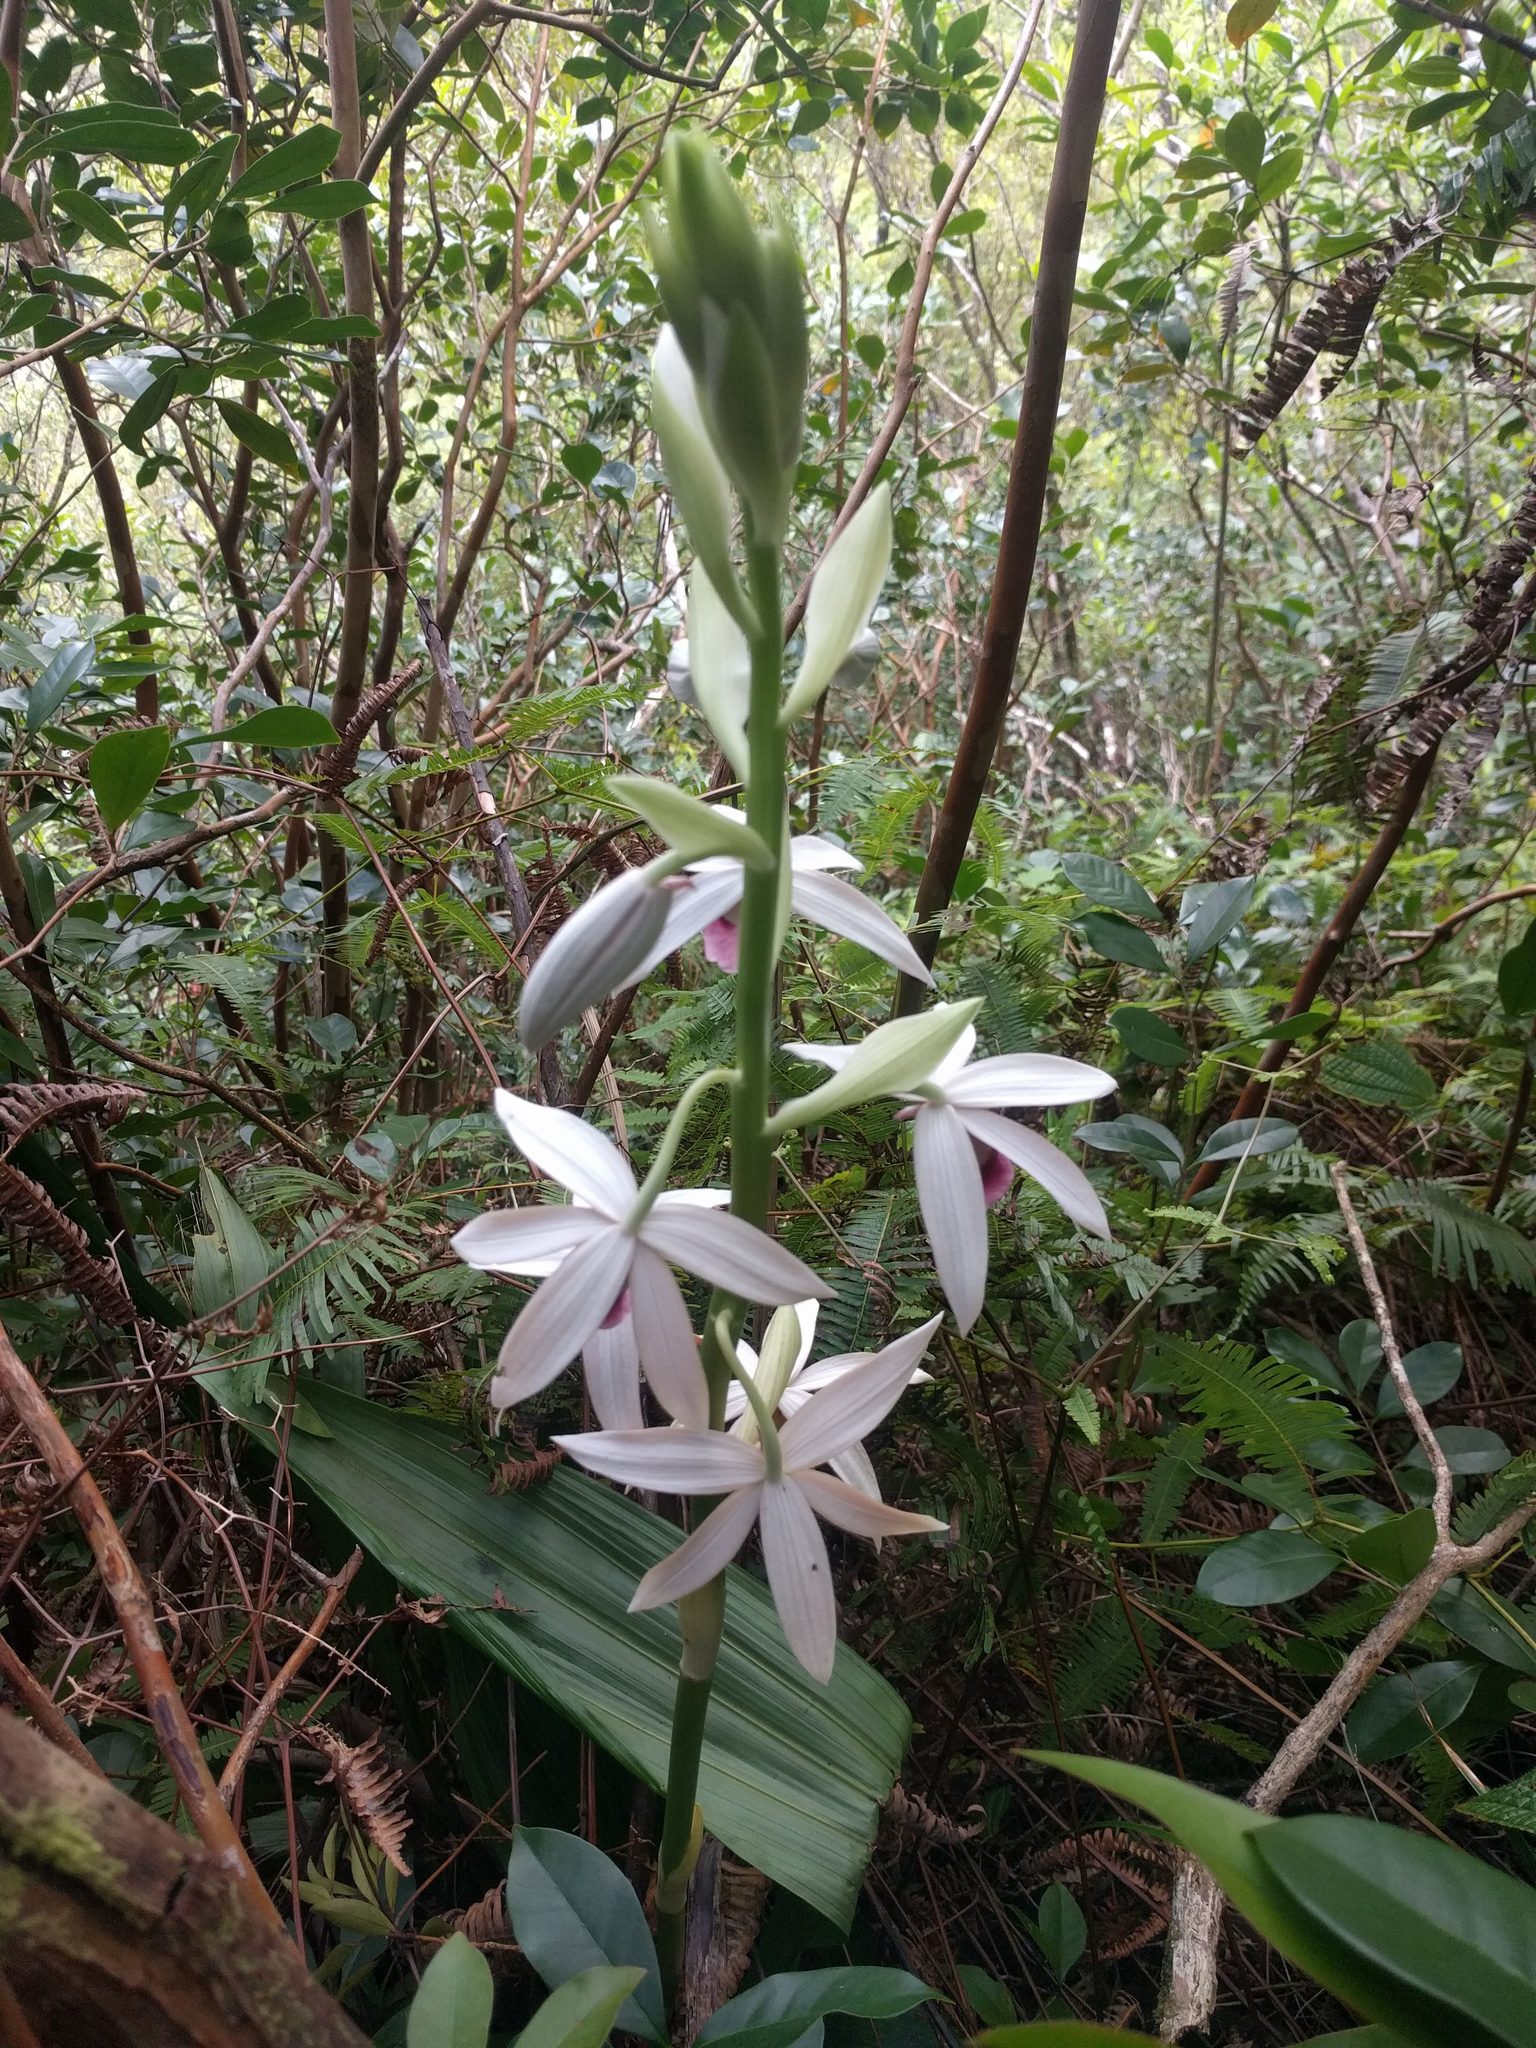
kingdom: Plantae
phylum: Tracheophyta
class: Liliopsida
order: Asparagales
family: Orchidaceae
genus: Calanthe
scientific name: Calanthe tankervilleae
